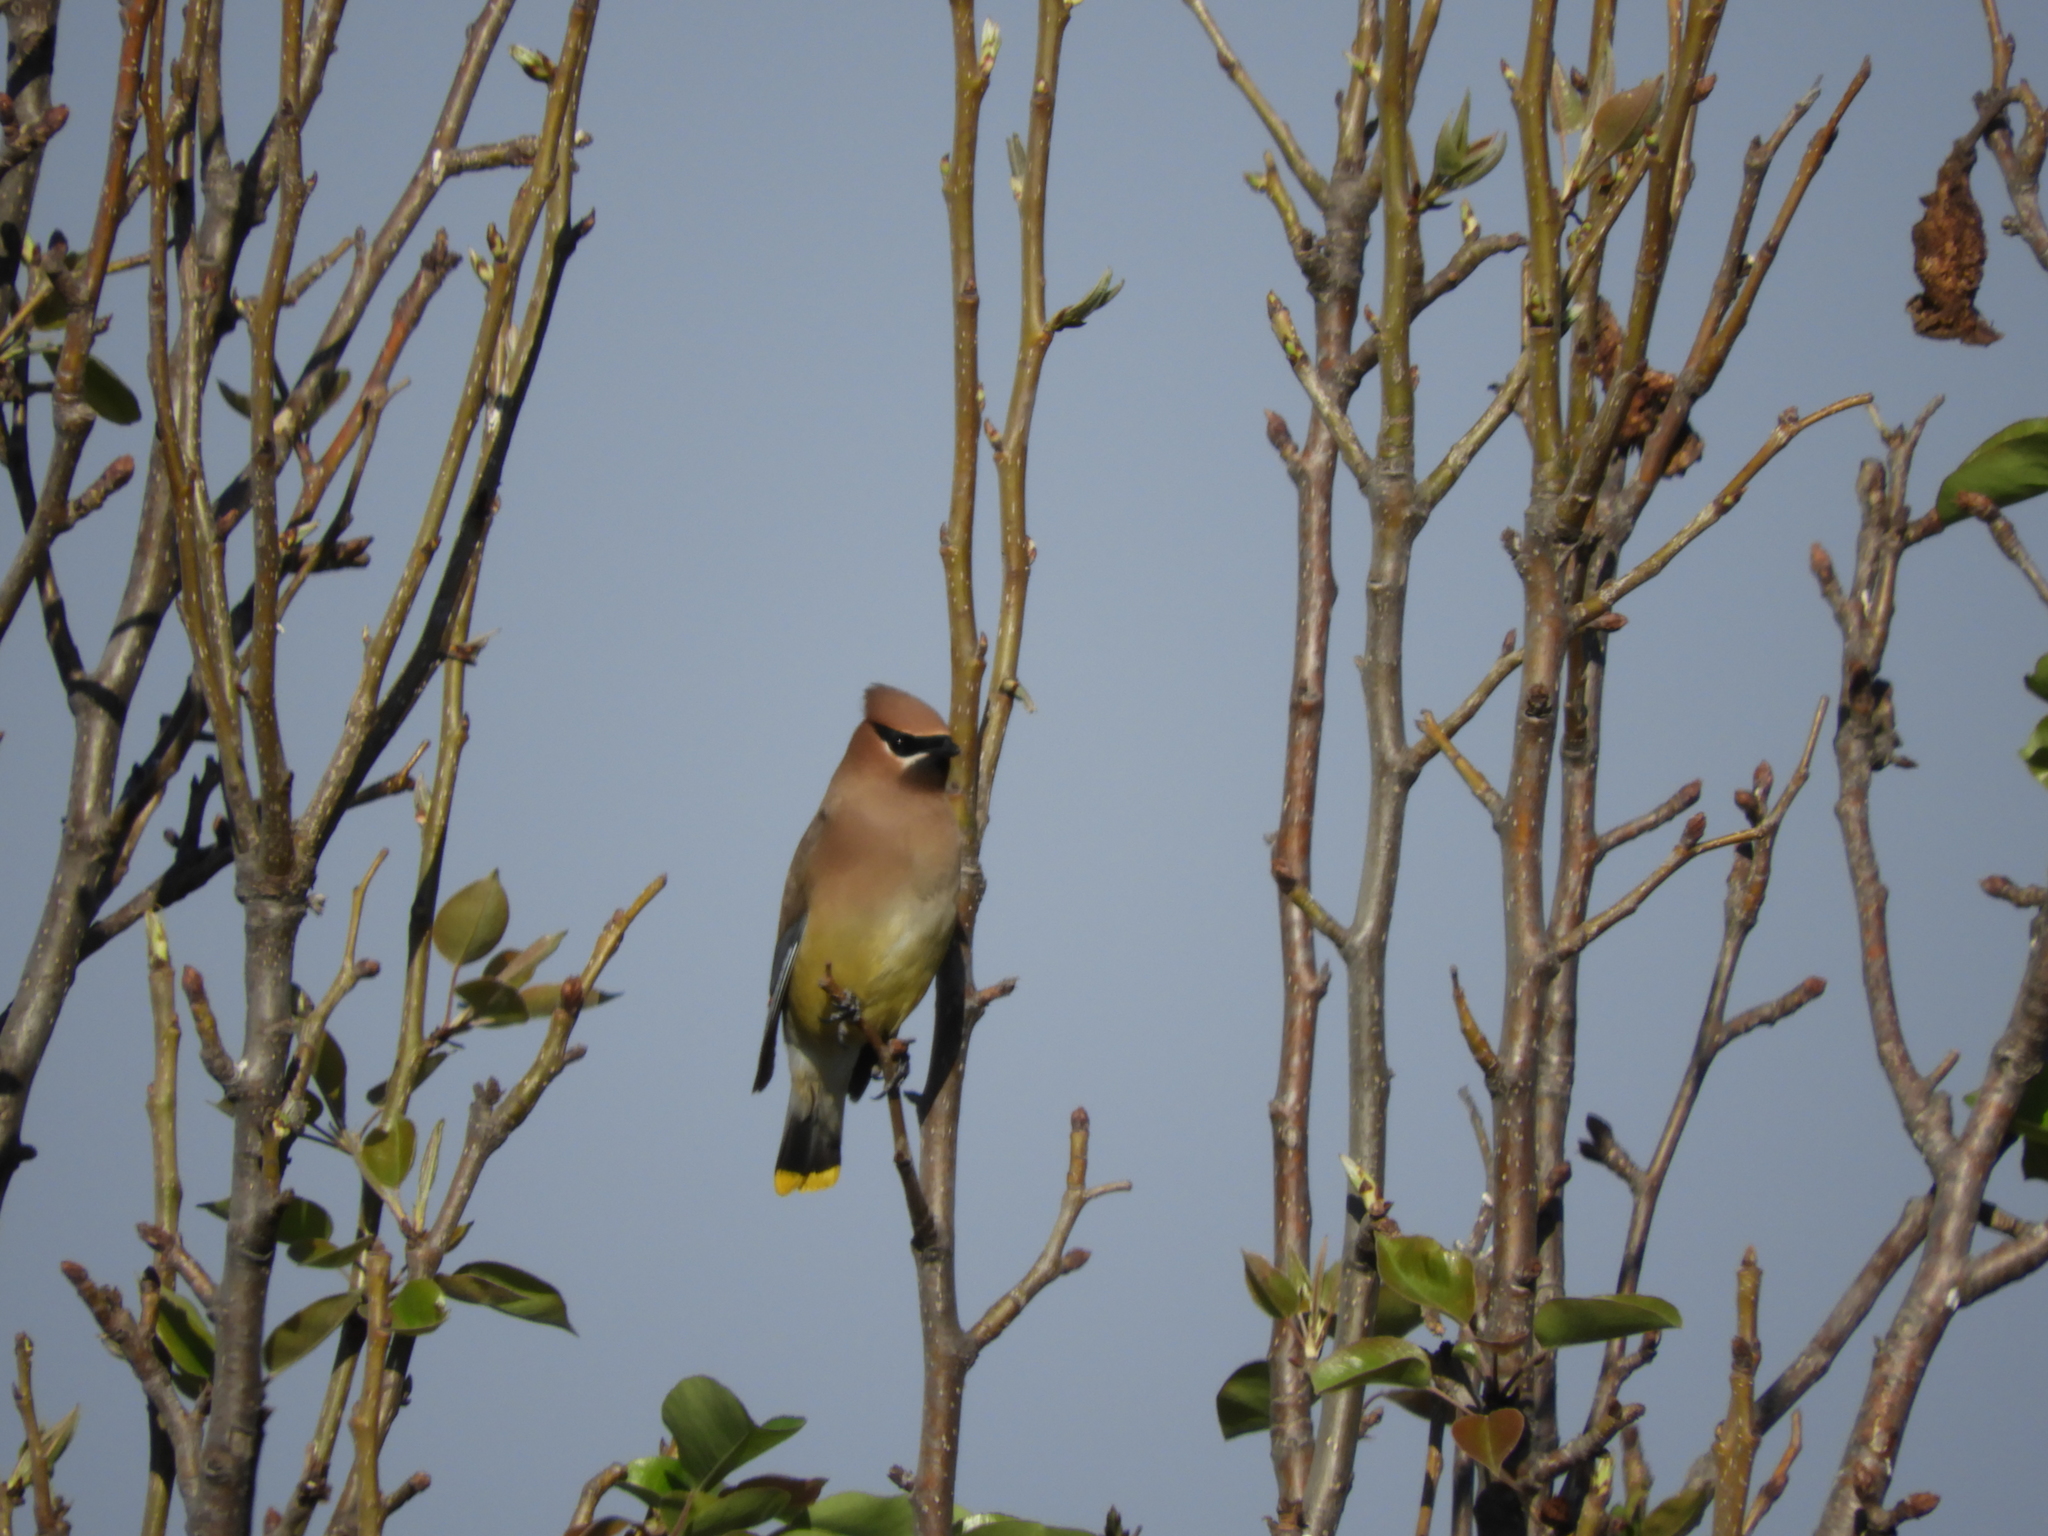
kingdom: Animalia
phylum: Chordata
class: Aves
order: Passeriformes
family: Bombycillidae
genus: Bombycilla
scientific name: Bombycilla cedrorum
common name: Cedar waxwing
